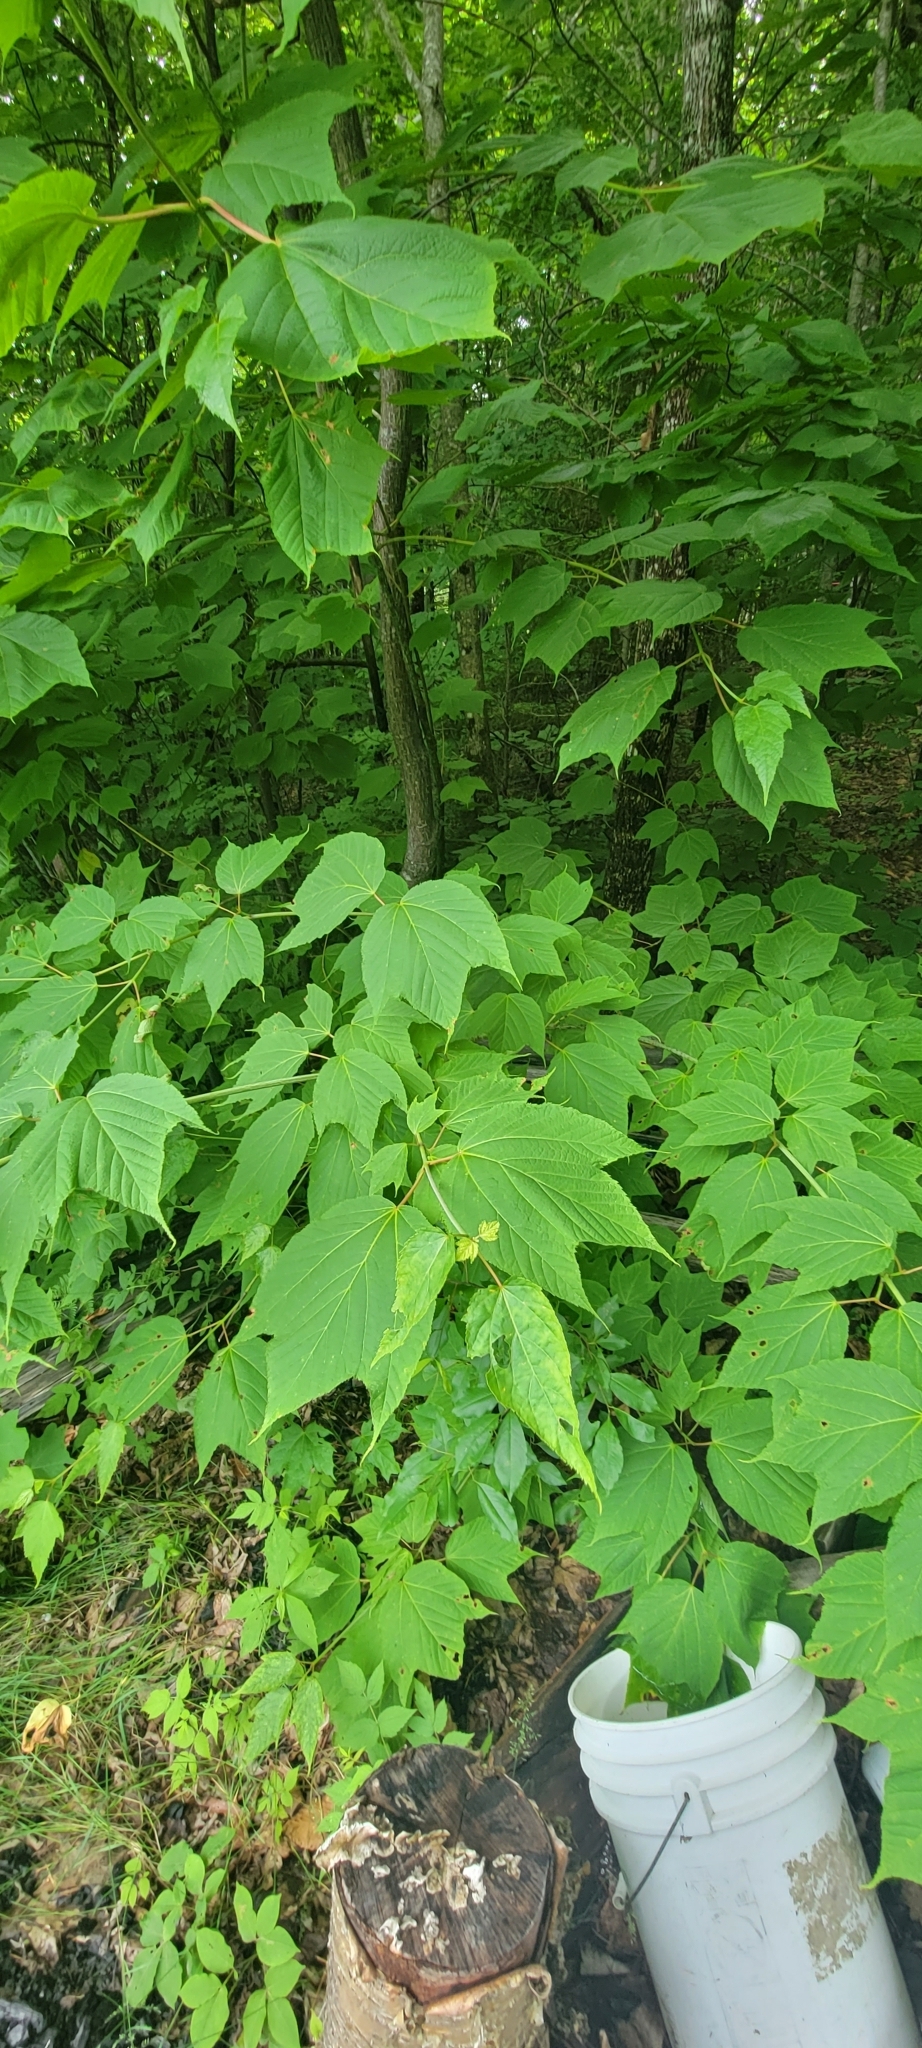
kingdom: Plantae
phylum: Tracheophyta
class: Magnoliopsida
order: Sapindales
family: Sapindaceae
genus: Acer
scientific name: Acer pensylvanicum
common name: Moosewood
